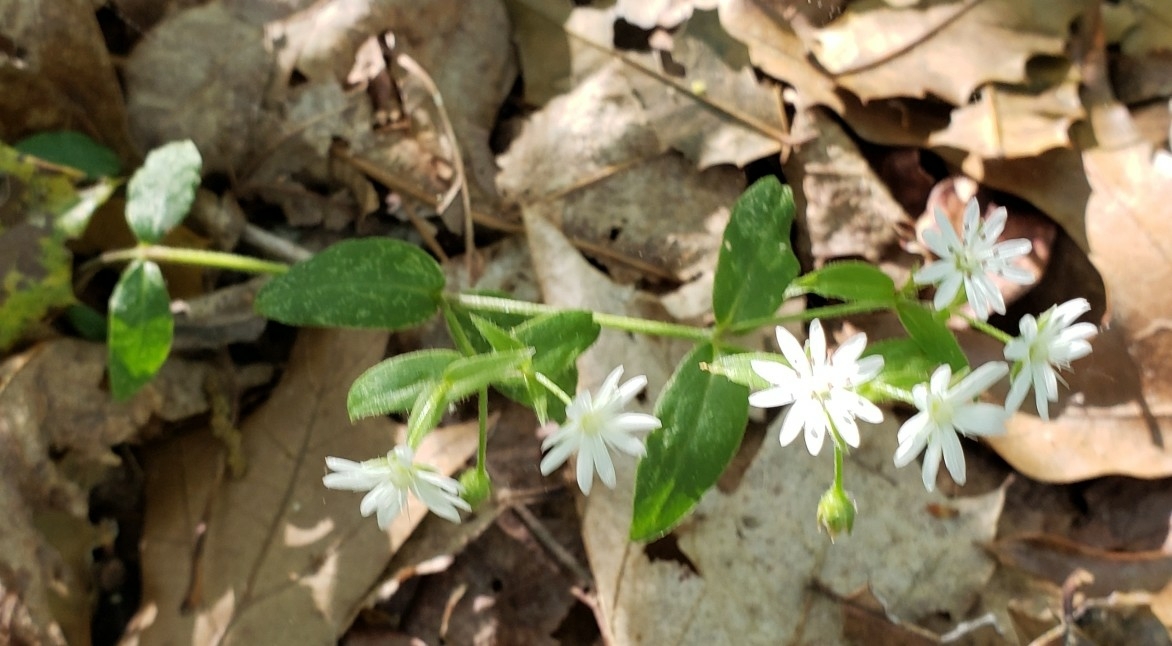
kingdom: Plantae
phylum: Tracheophyta
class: Magnoliopsida
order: Caryophyllales
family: Caryophyllaceae
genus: Stellaria
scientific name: Stellaria pubera
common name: Star chickweed
